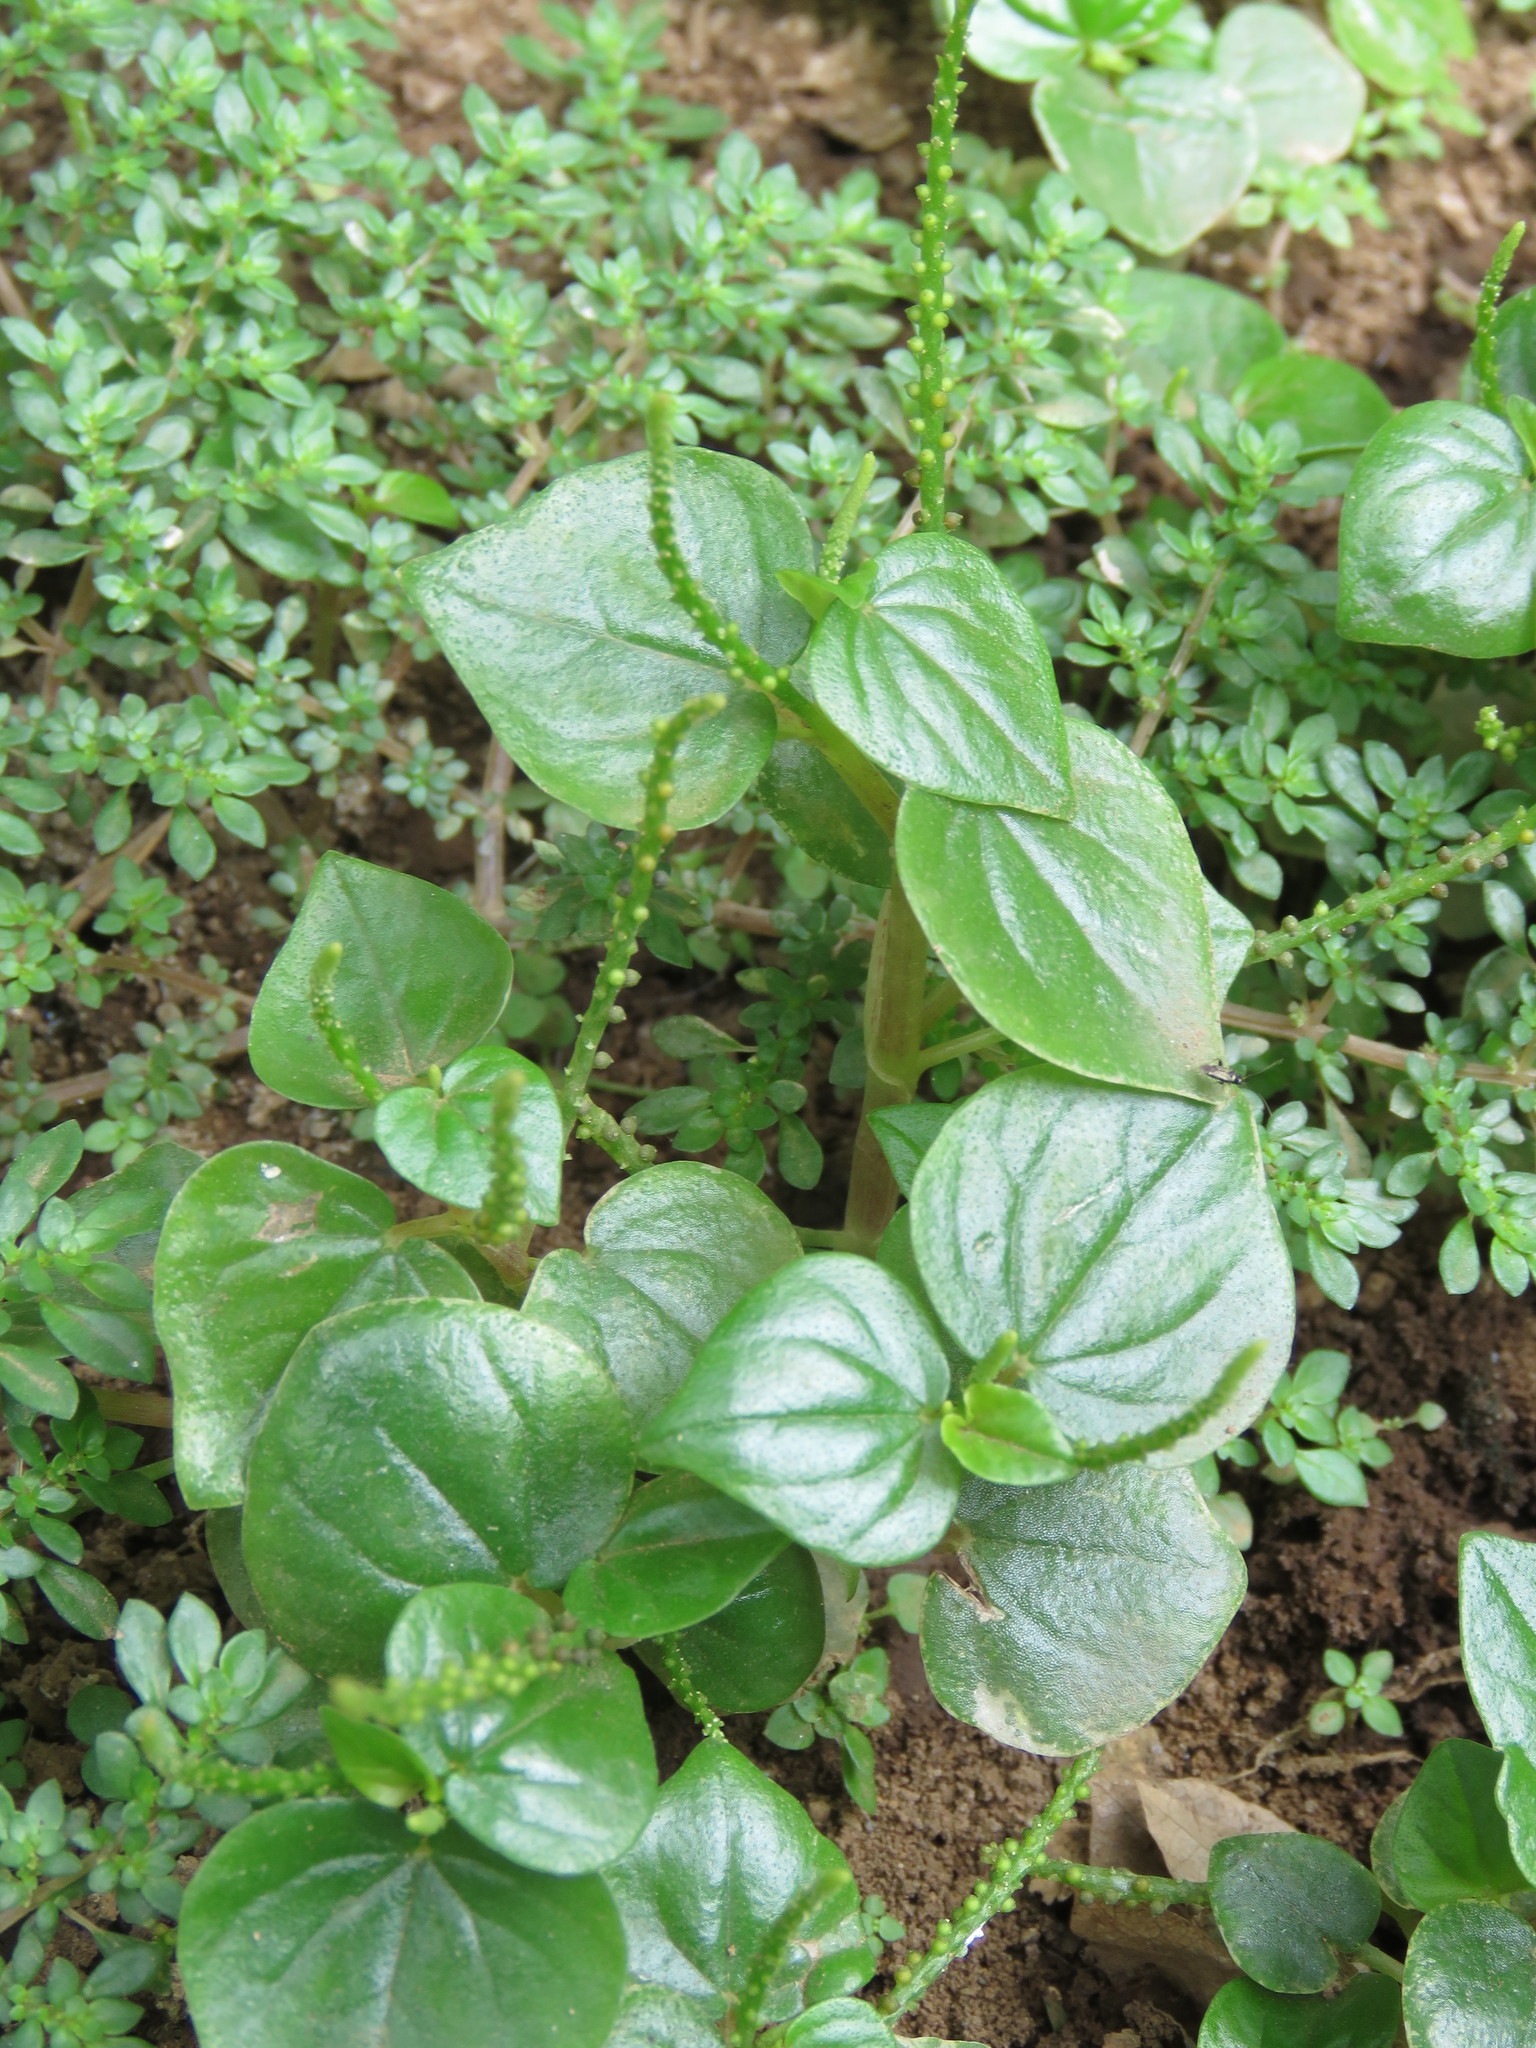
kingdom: Plantae
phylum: Tracheophyta
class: Magnoliopsida
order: Piperales
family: Piperaceae
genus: Peperomia
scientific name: Peperomia pellucida
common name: Man to man
